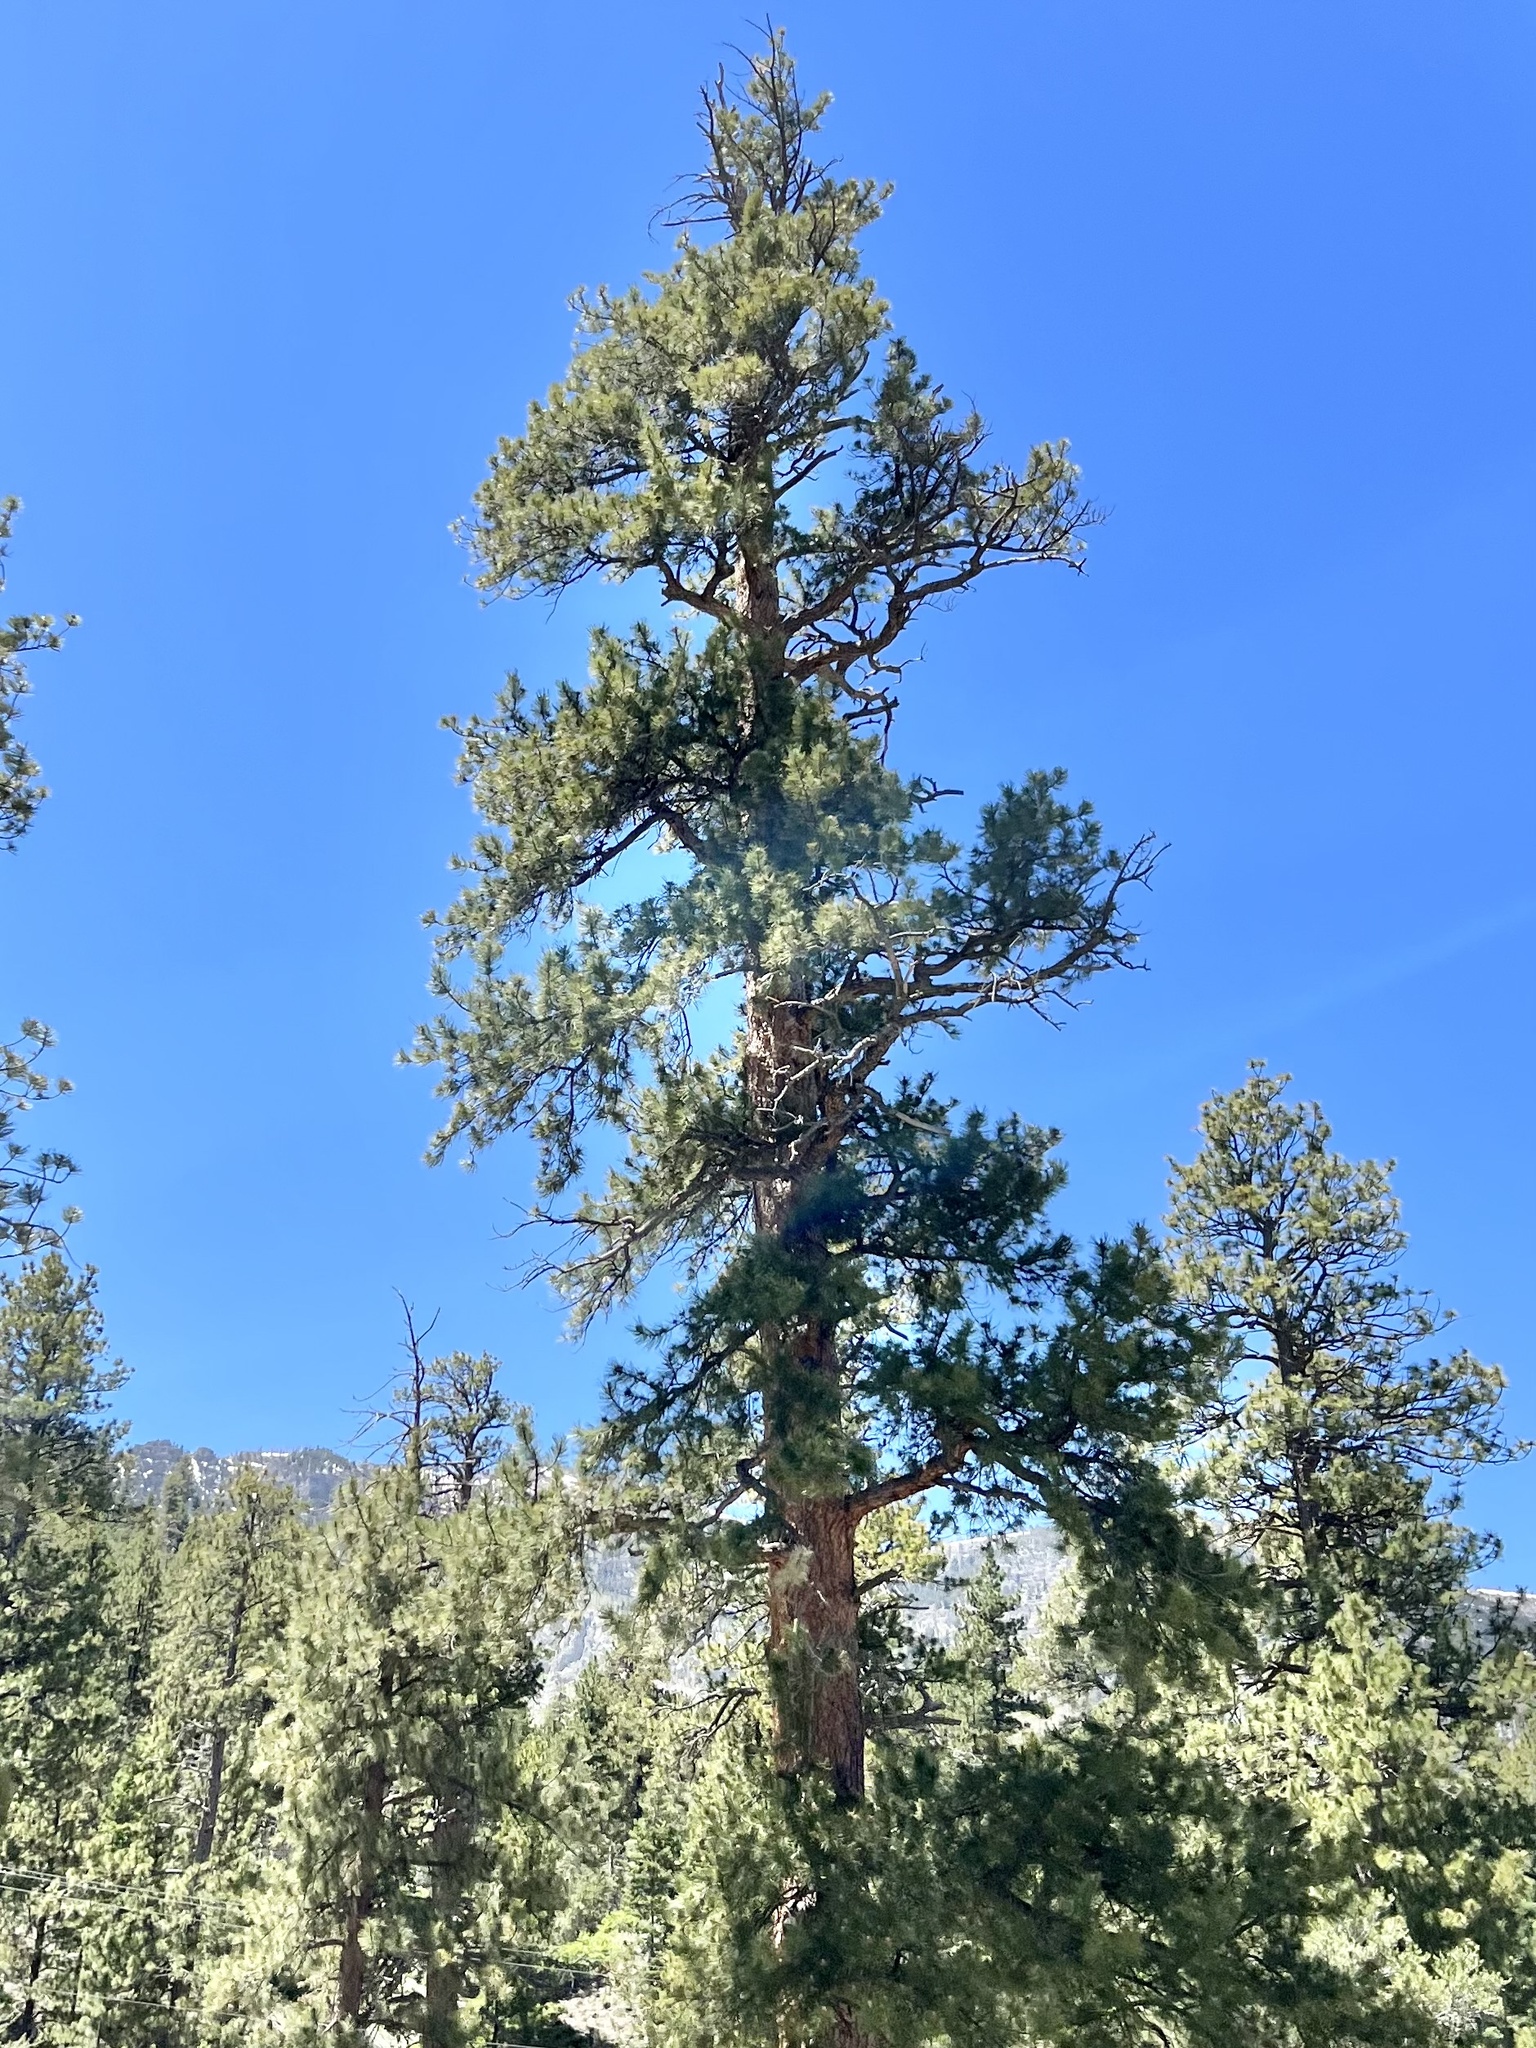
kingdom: Plantae
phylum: Tracheophyta
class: Pinopsida
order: Pinales
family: Pinaceae
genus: Pinus
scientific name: Pinus ponderosa
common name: Western yellow-pine
